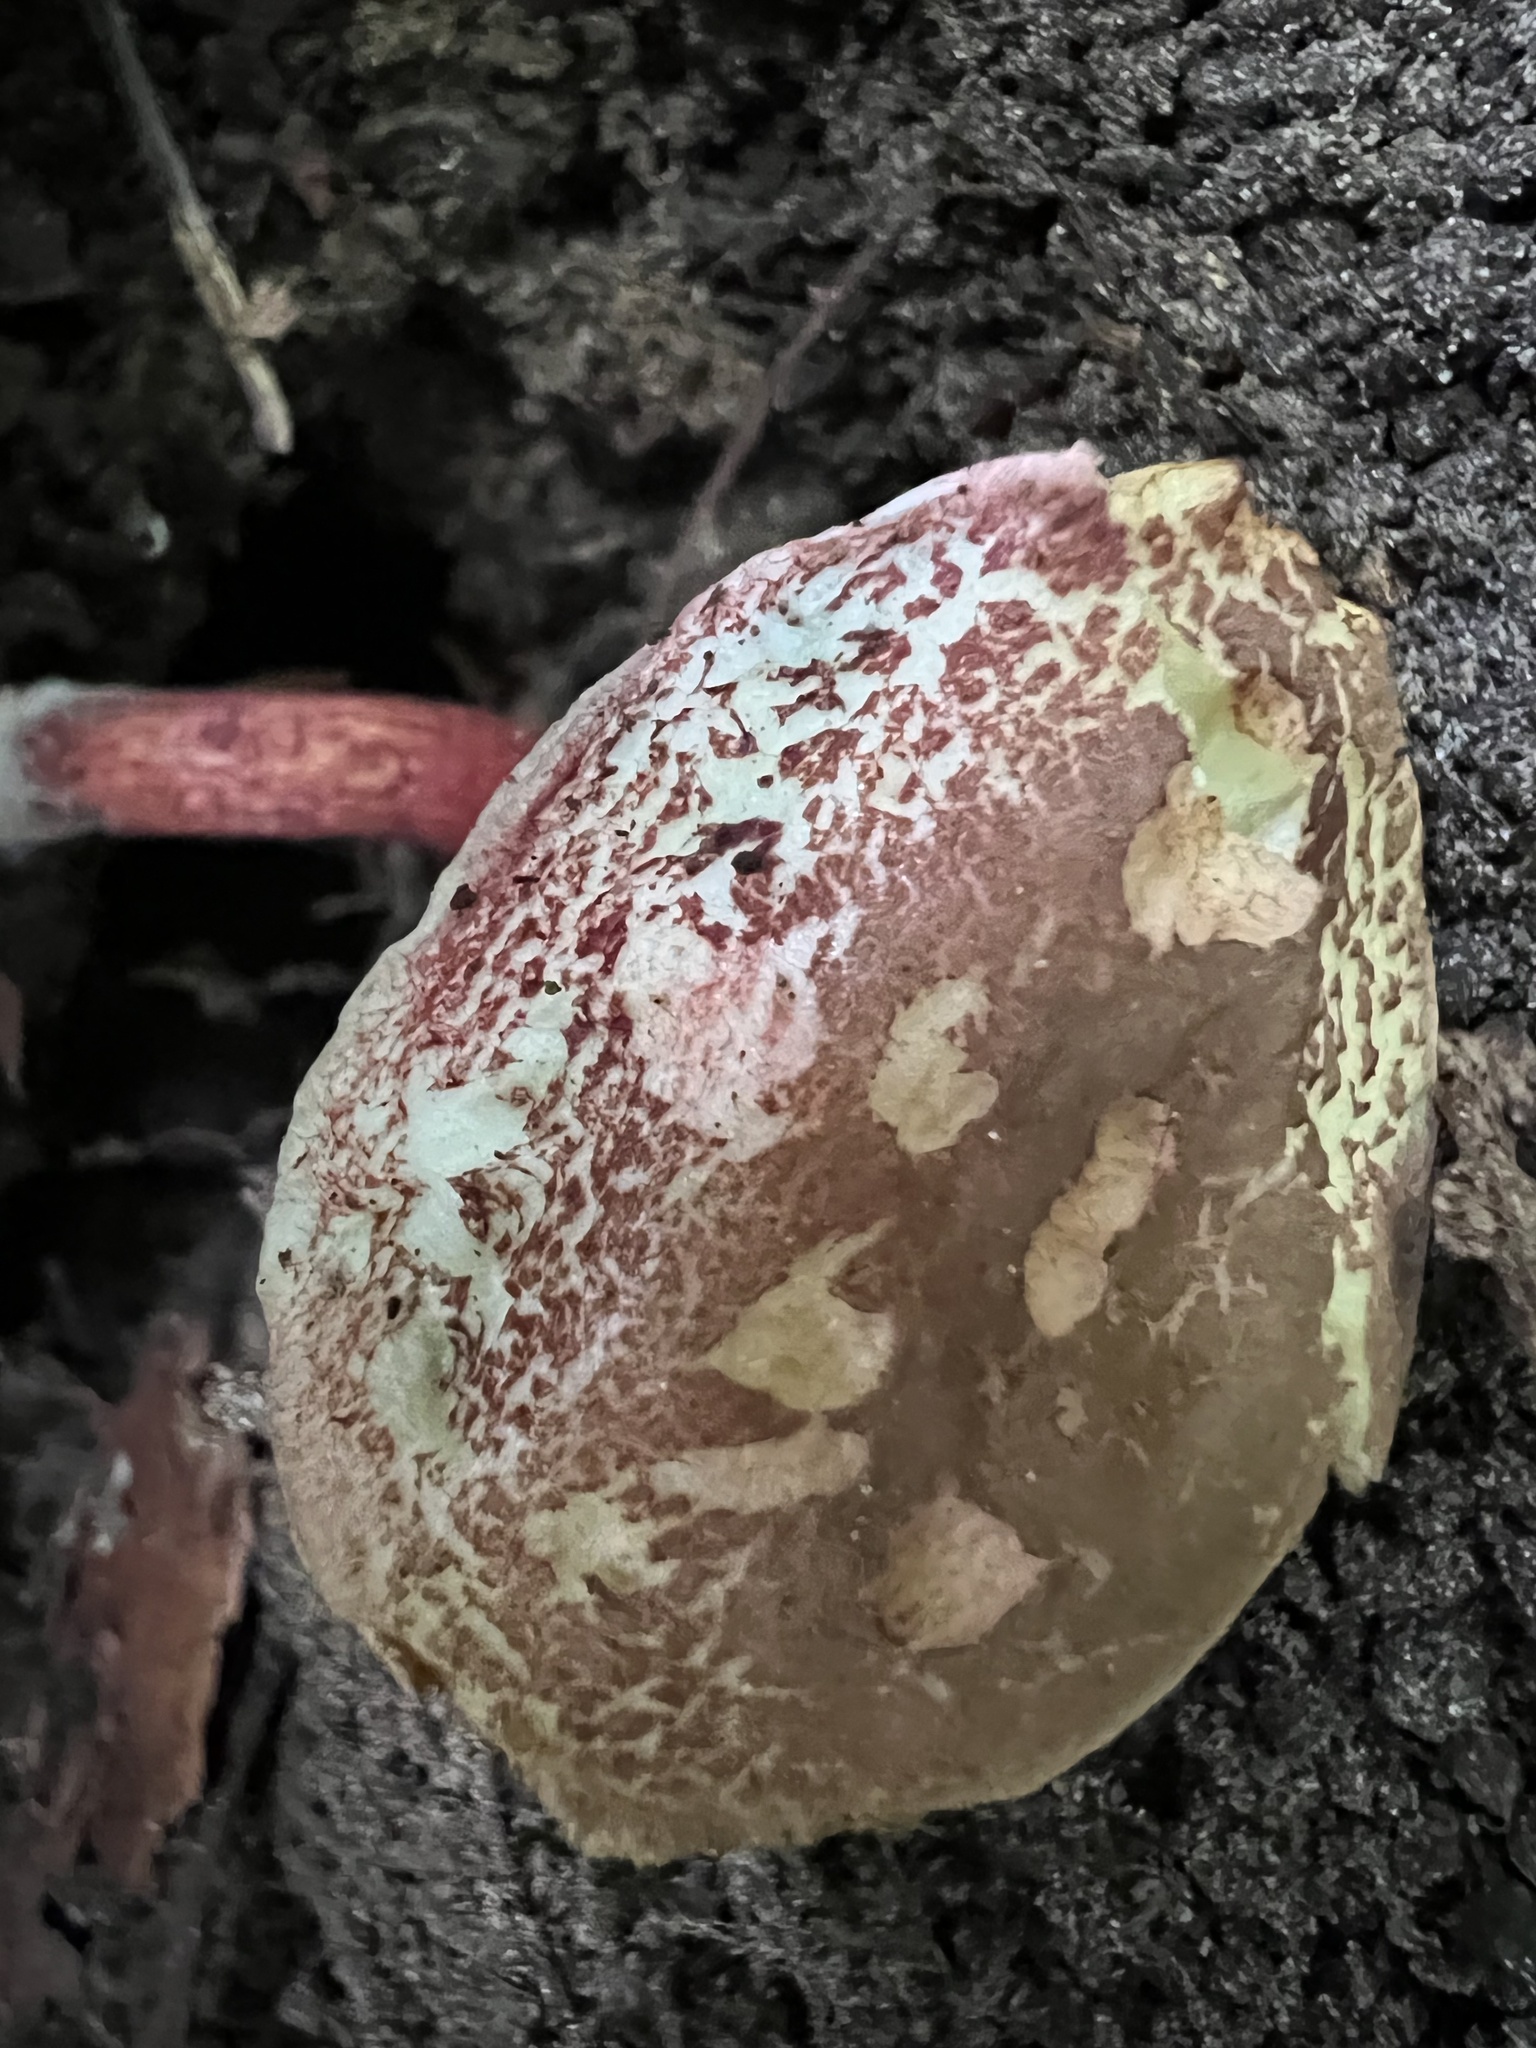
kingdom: Fungi
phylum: Basidiomycota
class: Agaricomycetes
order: Boletales
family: Boletaceae
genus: Xerocomellus
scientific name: Xerocomellus chrysenteron
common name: Red-cracking bolete
